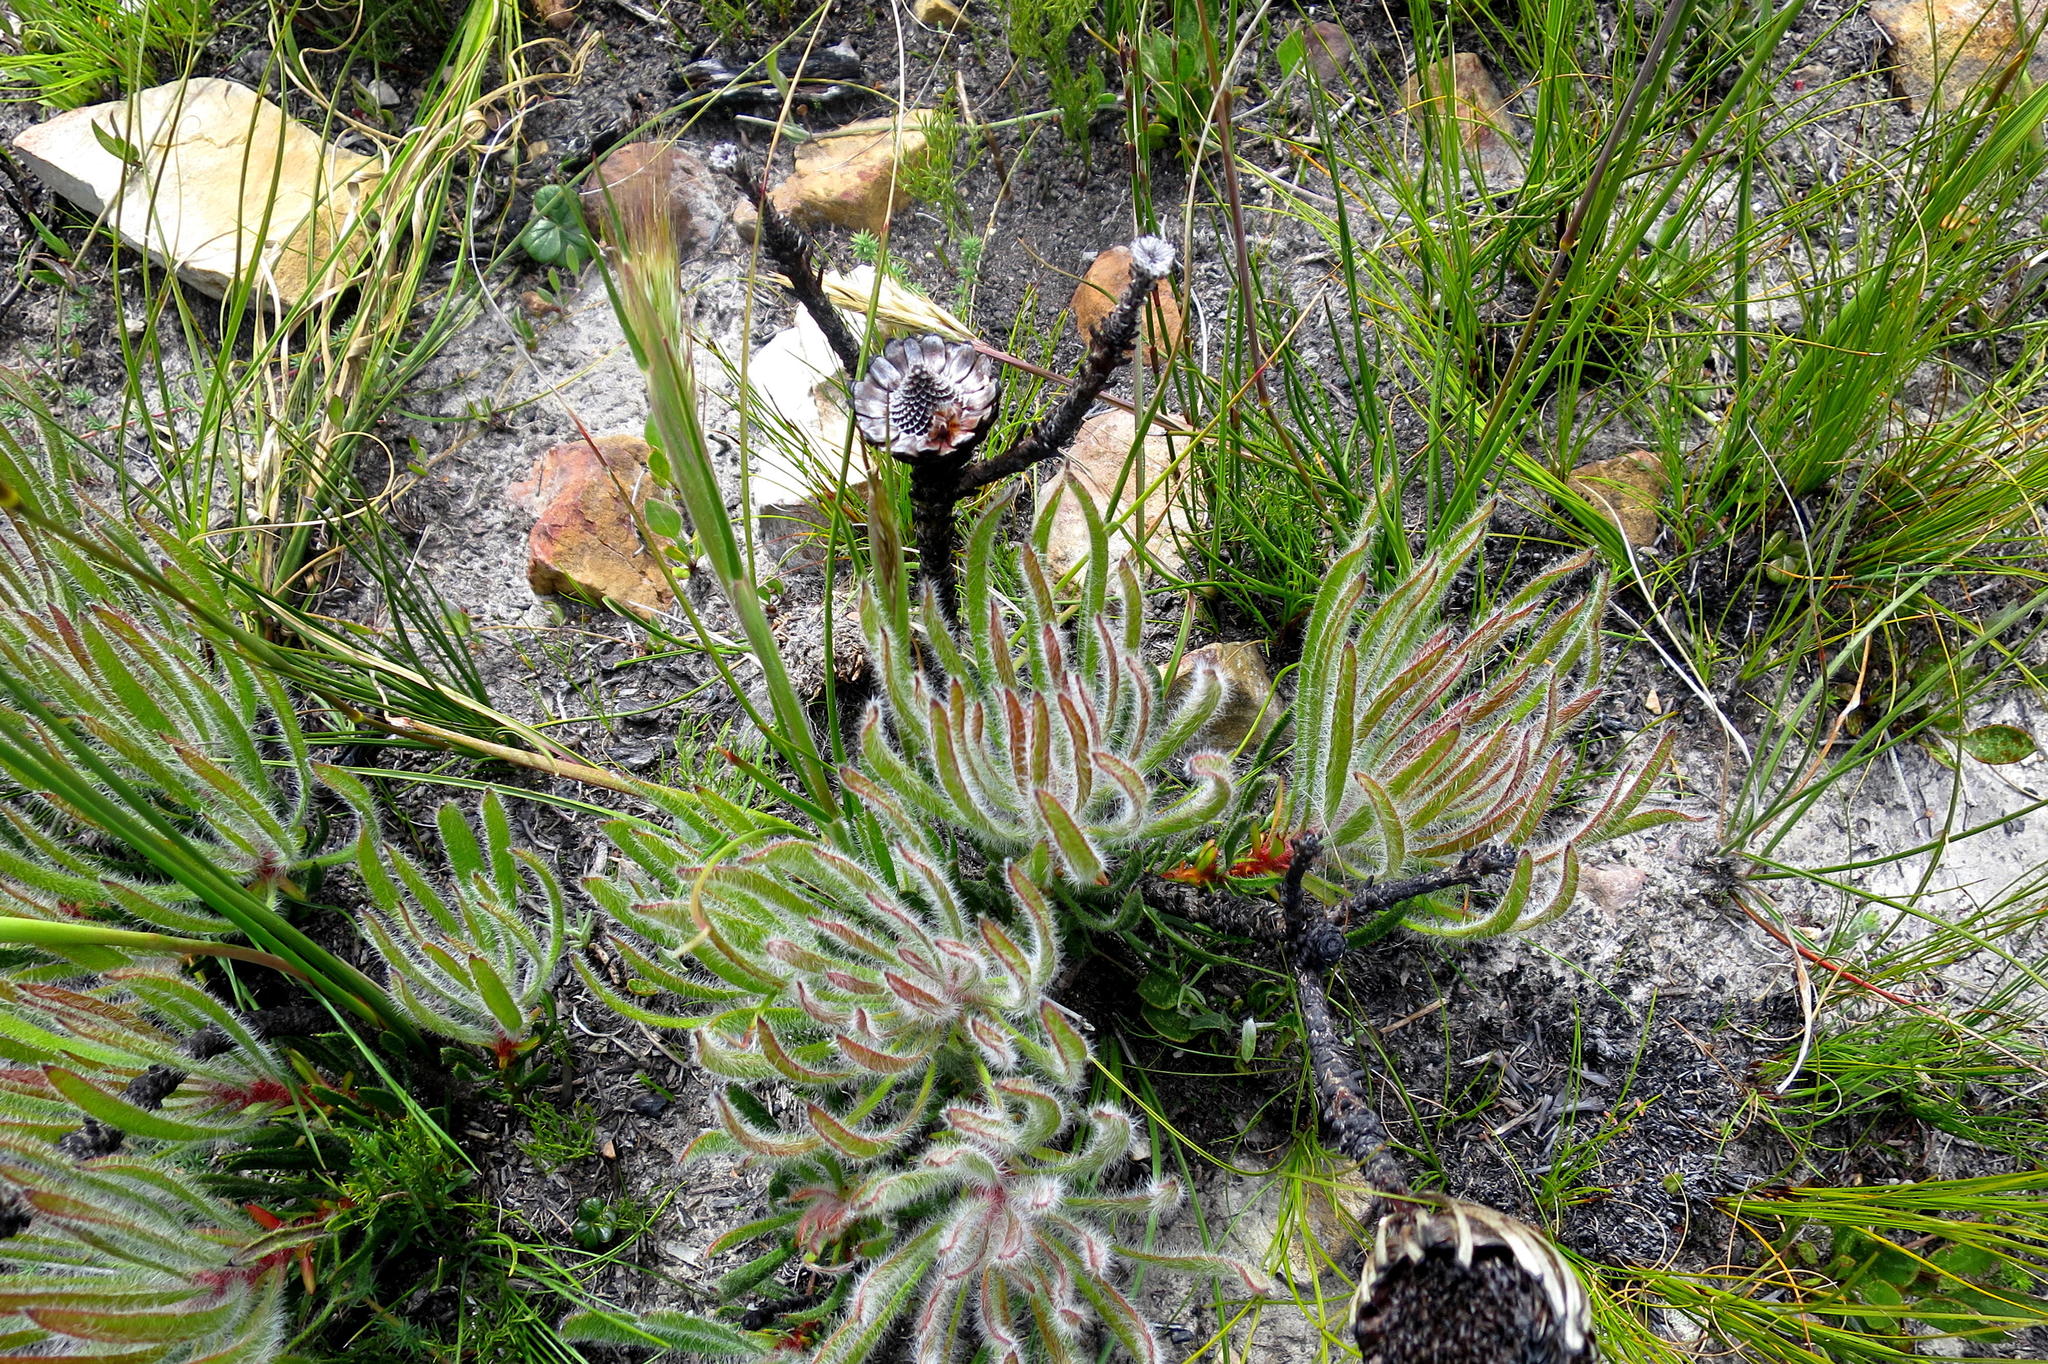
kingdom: Plantae
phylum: Tracheophyta
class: Magnoliopsida
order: Proteales
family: Proteaceae
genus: Protea
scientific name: Protea denticulata
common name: Tooth-leaf sugarbush
